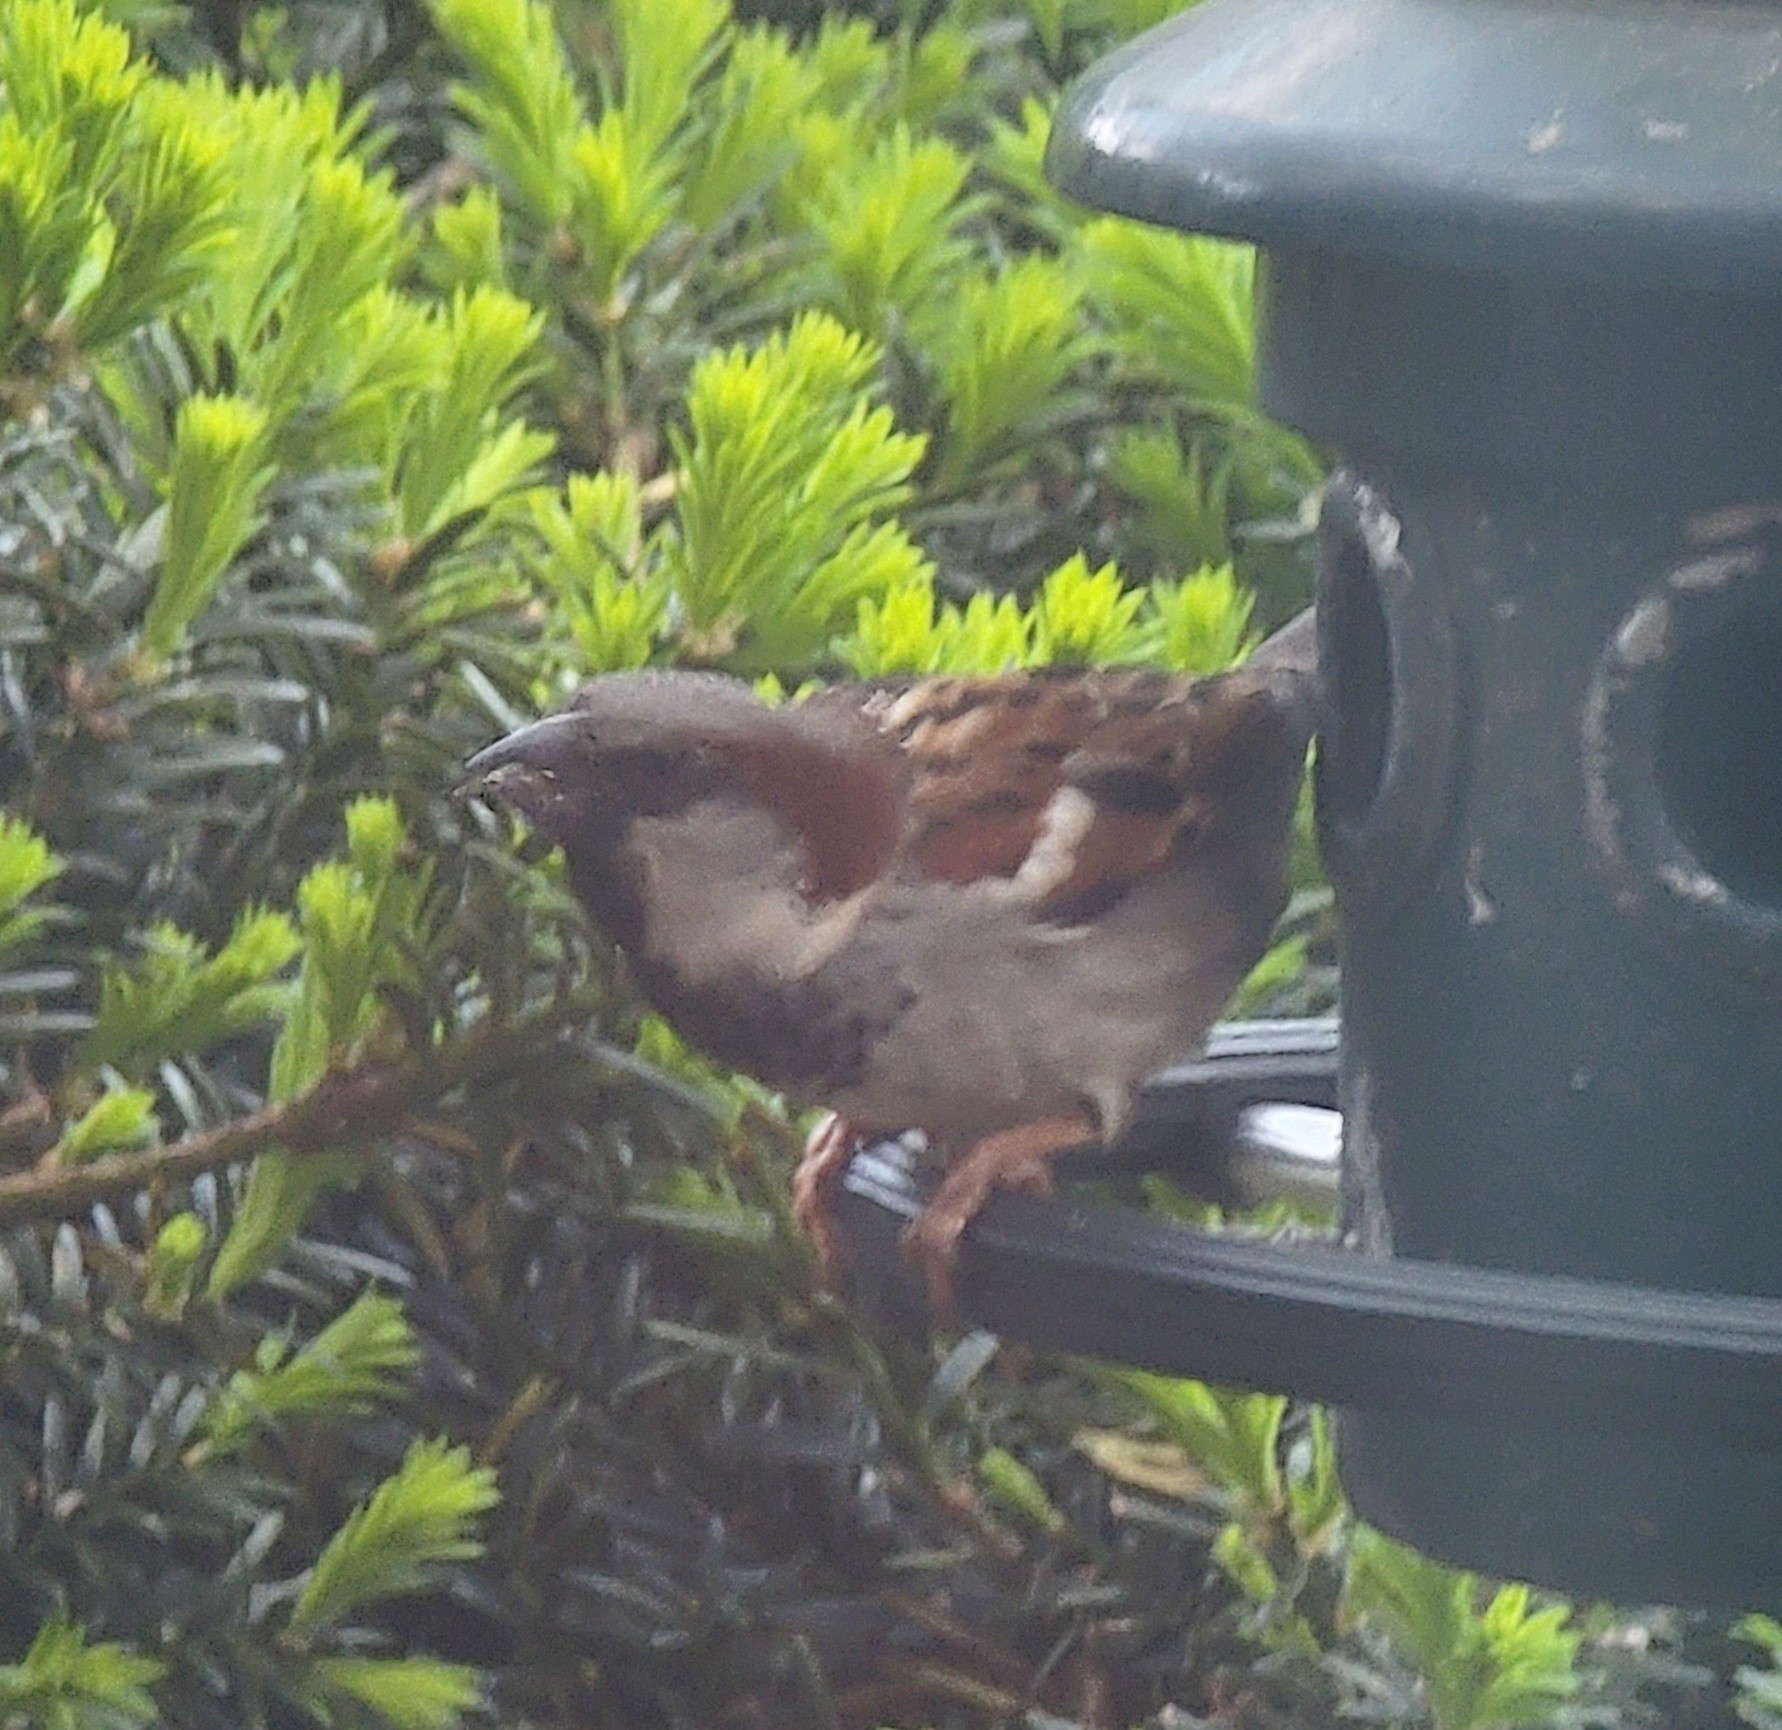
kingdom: Animalia
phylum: Chordata
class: Aves
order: Passeriformes
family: Passeridae
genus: Passer
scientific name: Passer domesticus
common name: House sparrow
